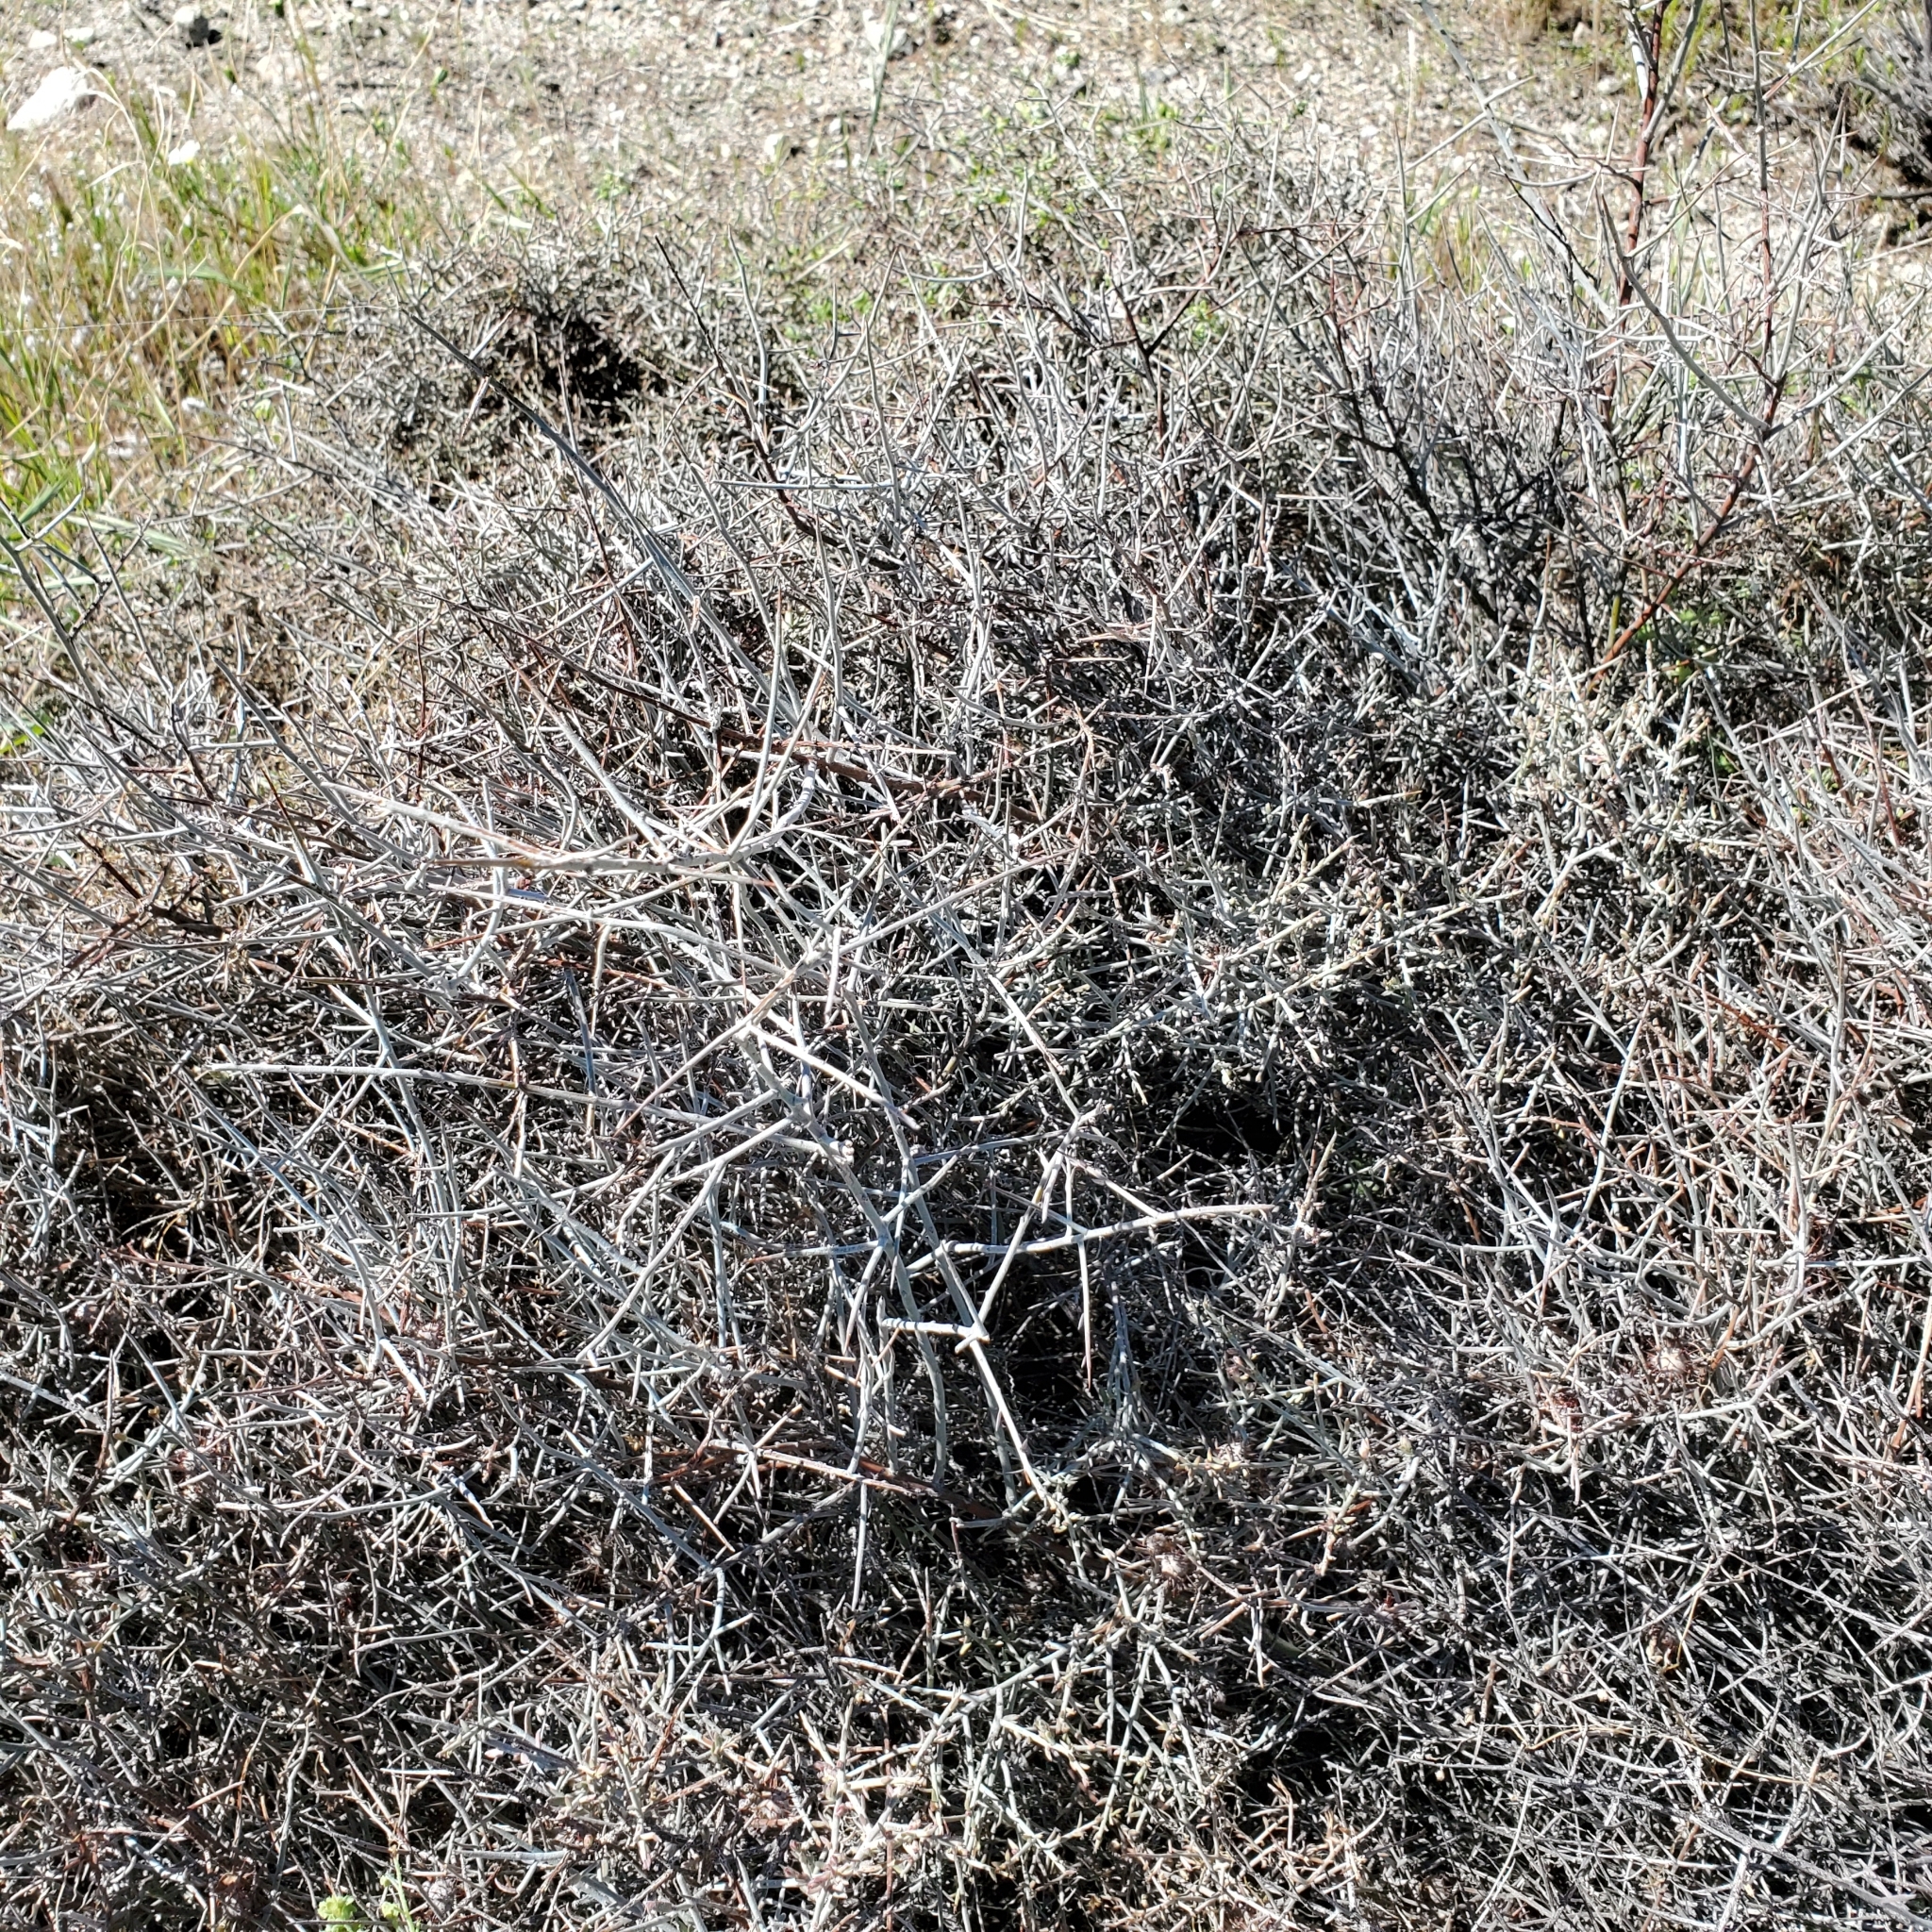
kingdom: Plantae
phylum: Tracheophyta
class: Magnoliopsida
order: Zygophyllales
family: Krameriaceae
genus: Krameria
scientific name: Krameria bicolor
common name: White ratany
